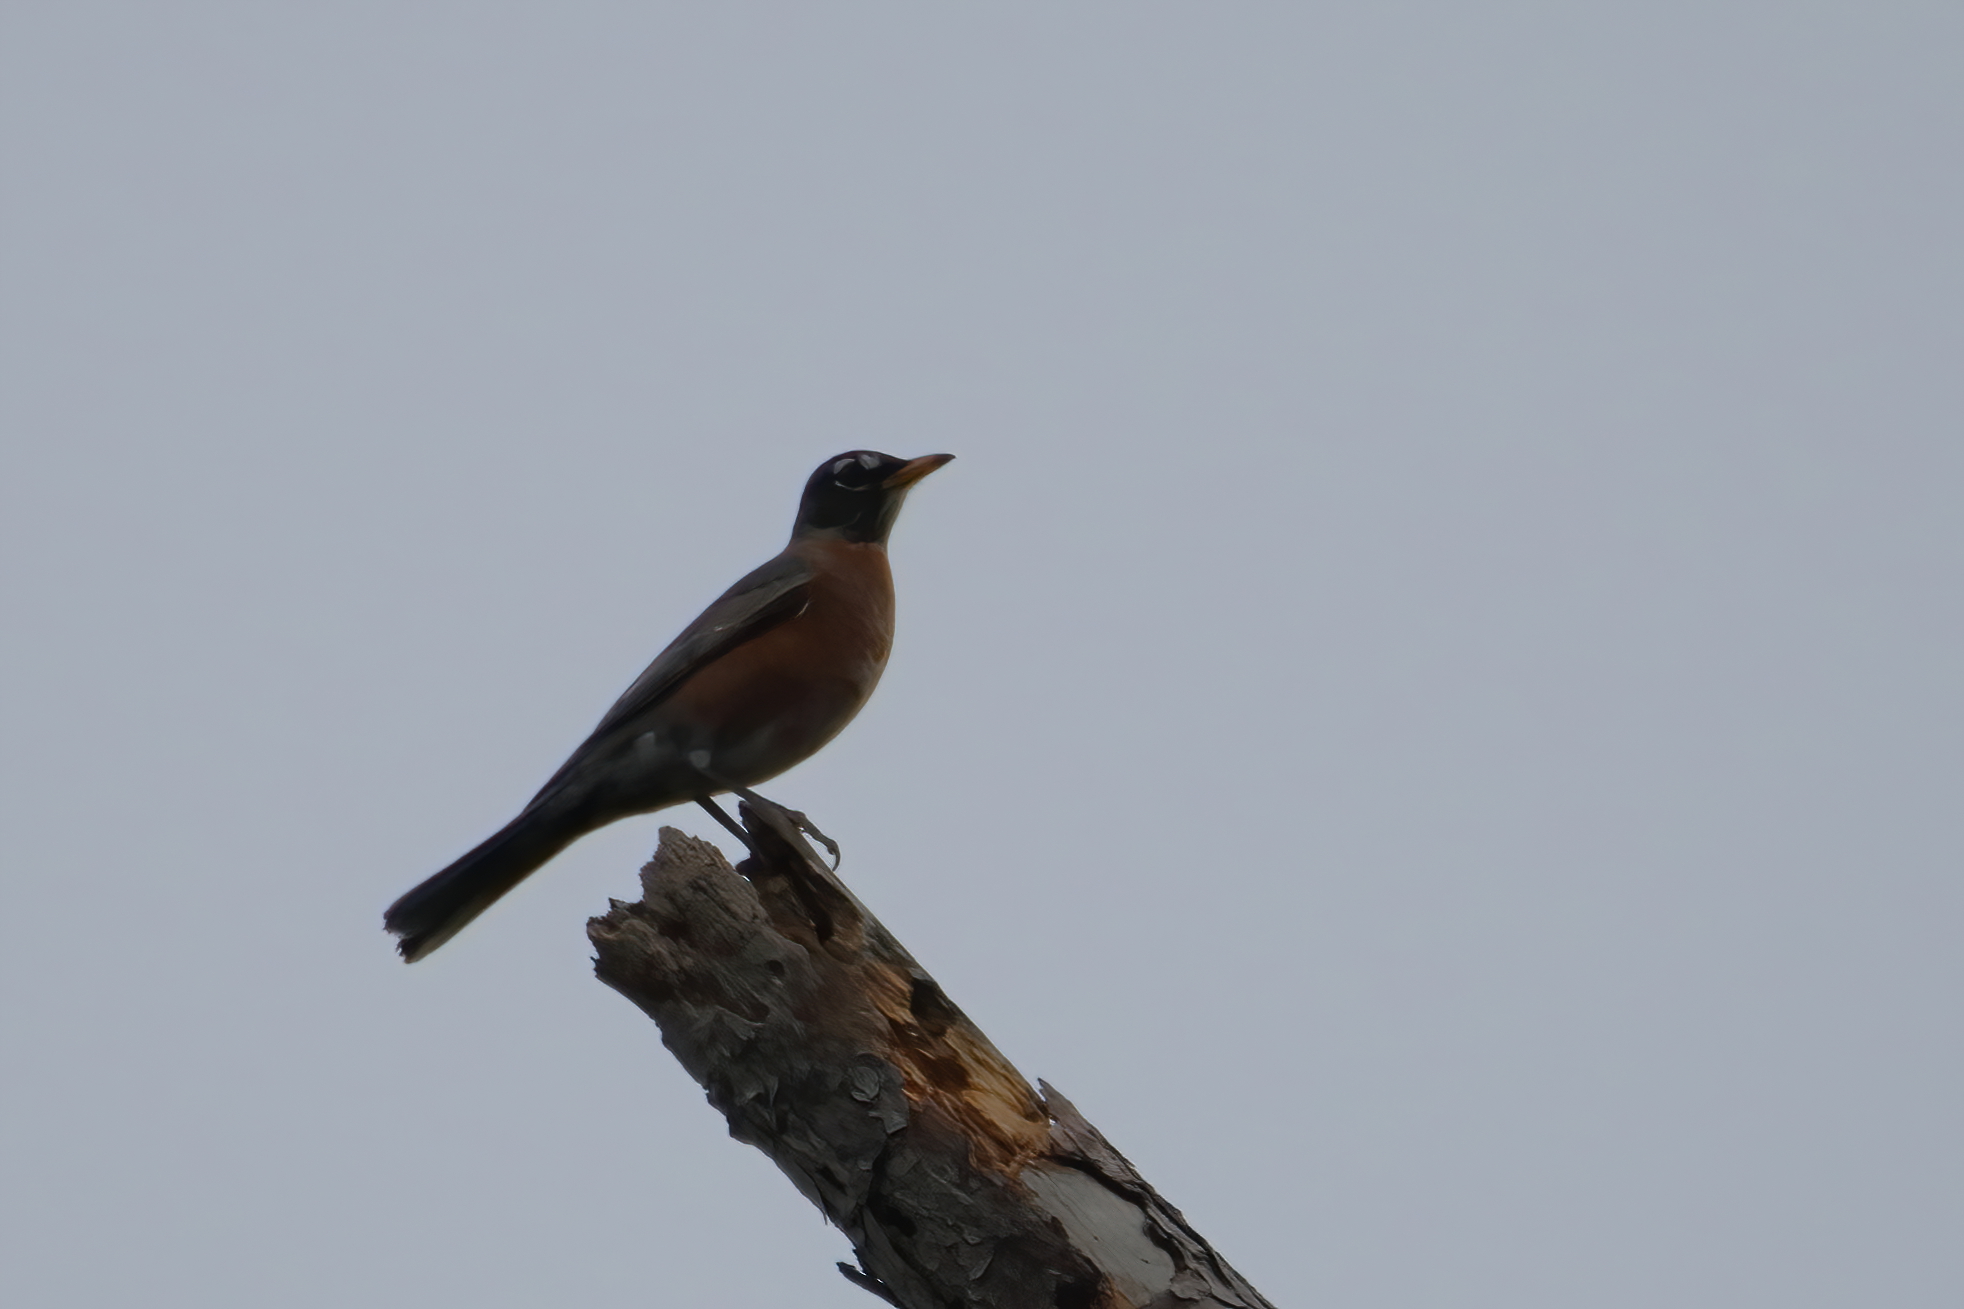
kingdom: Animalia
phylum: Chordata
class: Aves
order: Passeriformes
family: Turdidae
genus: Turdus
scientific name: Turdus migratorius
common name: American robin
